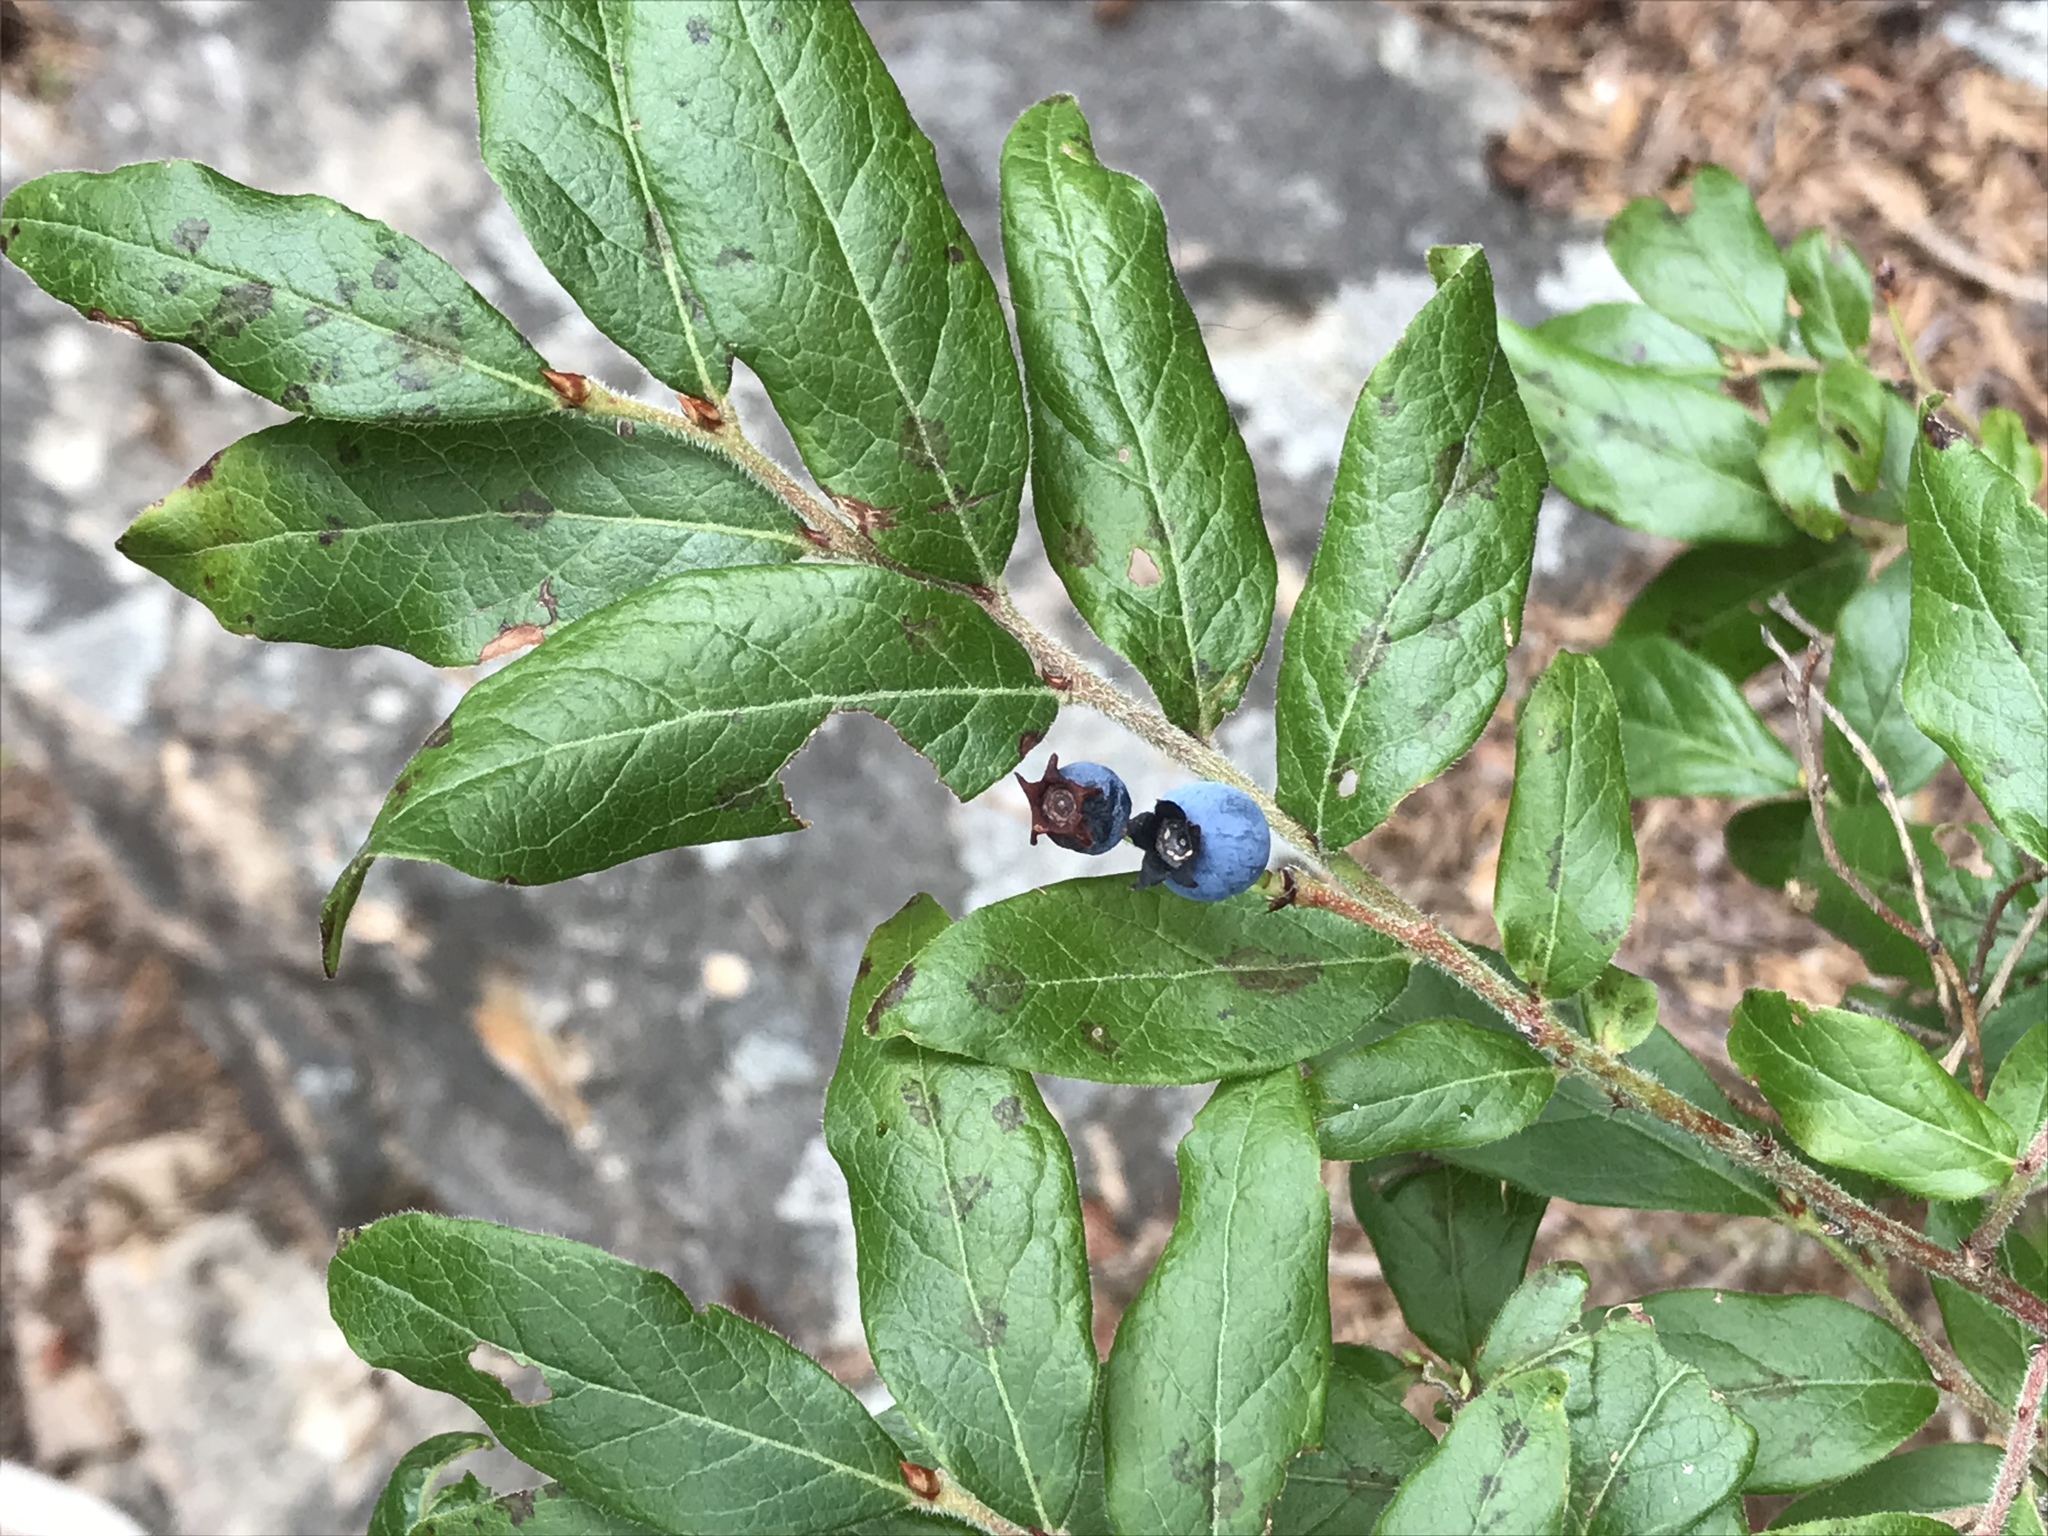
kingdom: Plantae
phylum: Tracheophyta
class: Magnoliopsida
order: Ericales
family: Ericaceae
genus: Vaccinium
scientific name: Vaccinium myrtilloides
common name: Canada blueberry
